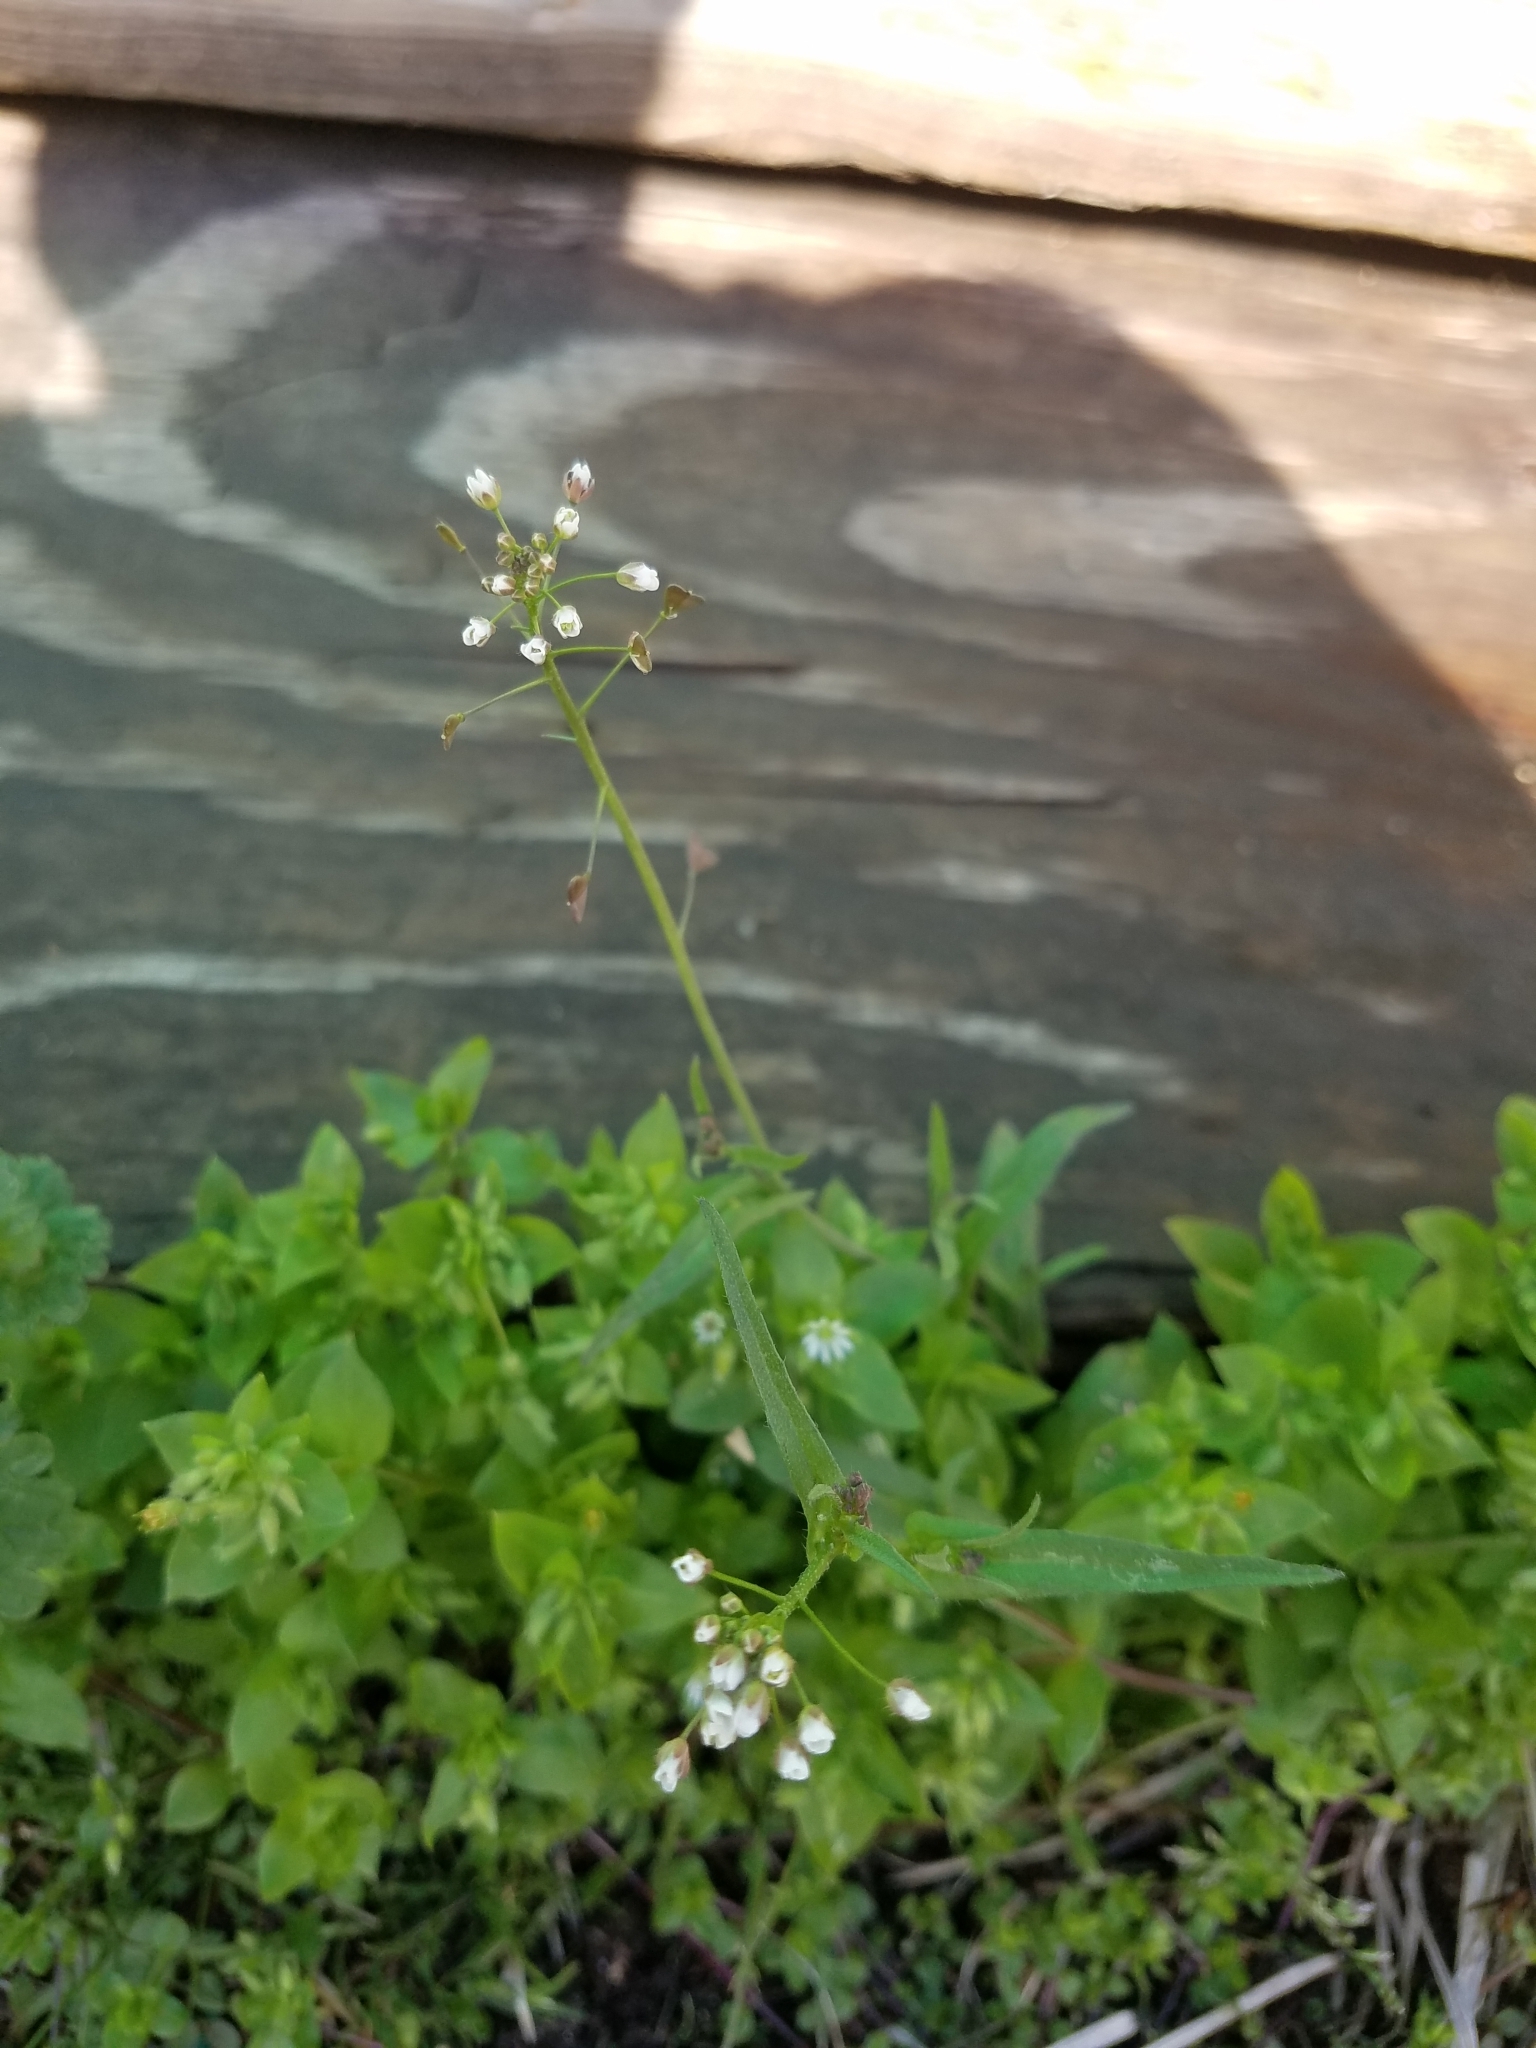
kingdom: Plantae
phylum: Tracheophyta
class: Magnoliopsida
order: Brassicales
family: Brassicaceae
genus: Capsella
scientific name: Capsella bursa-pastoris
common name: Shepherd's purse
